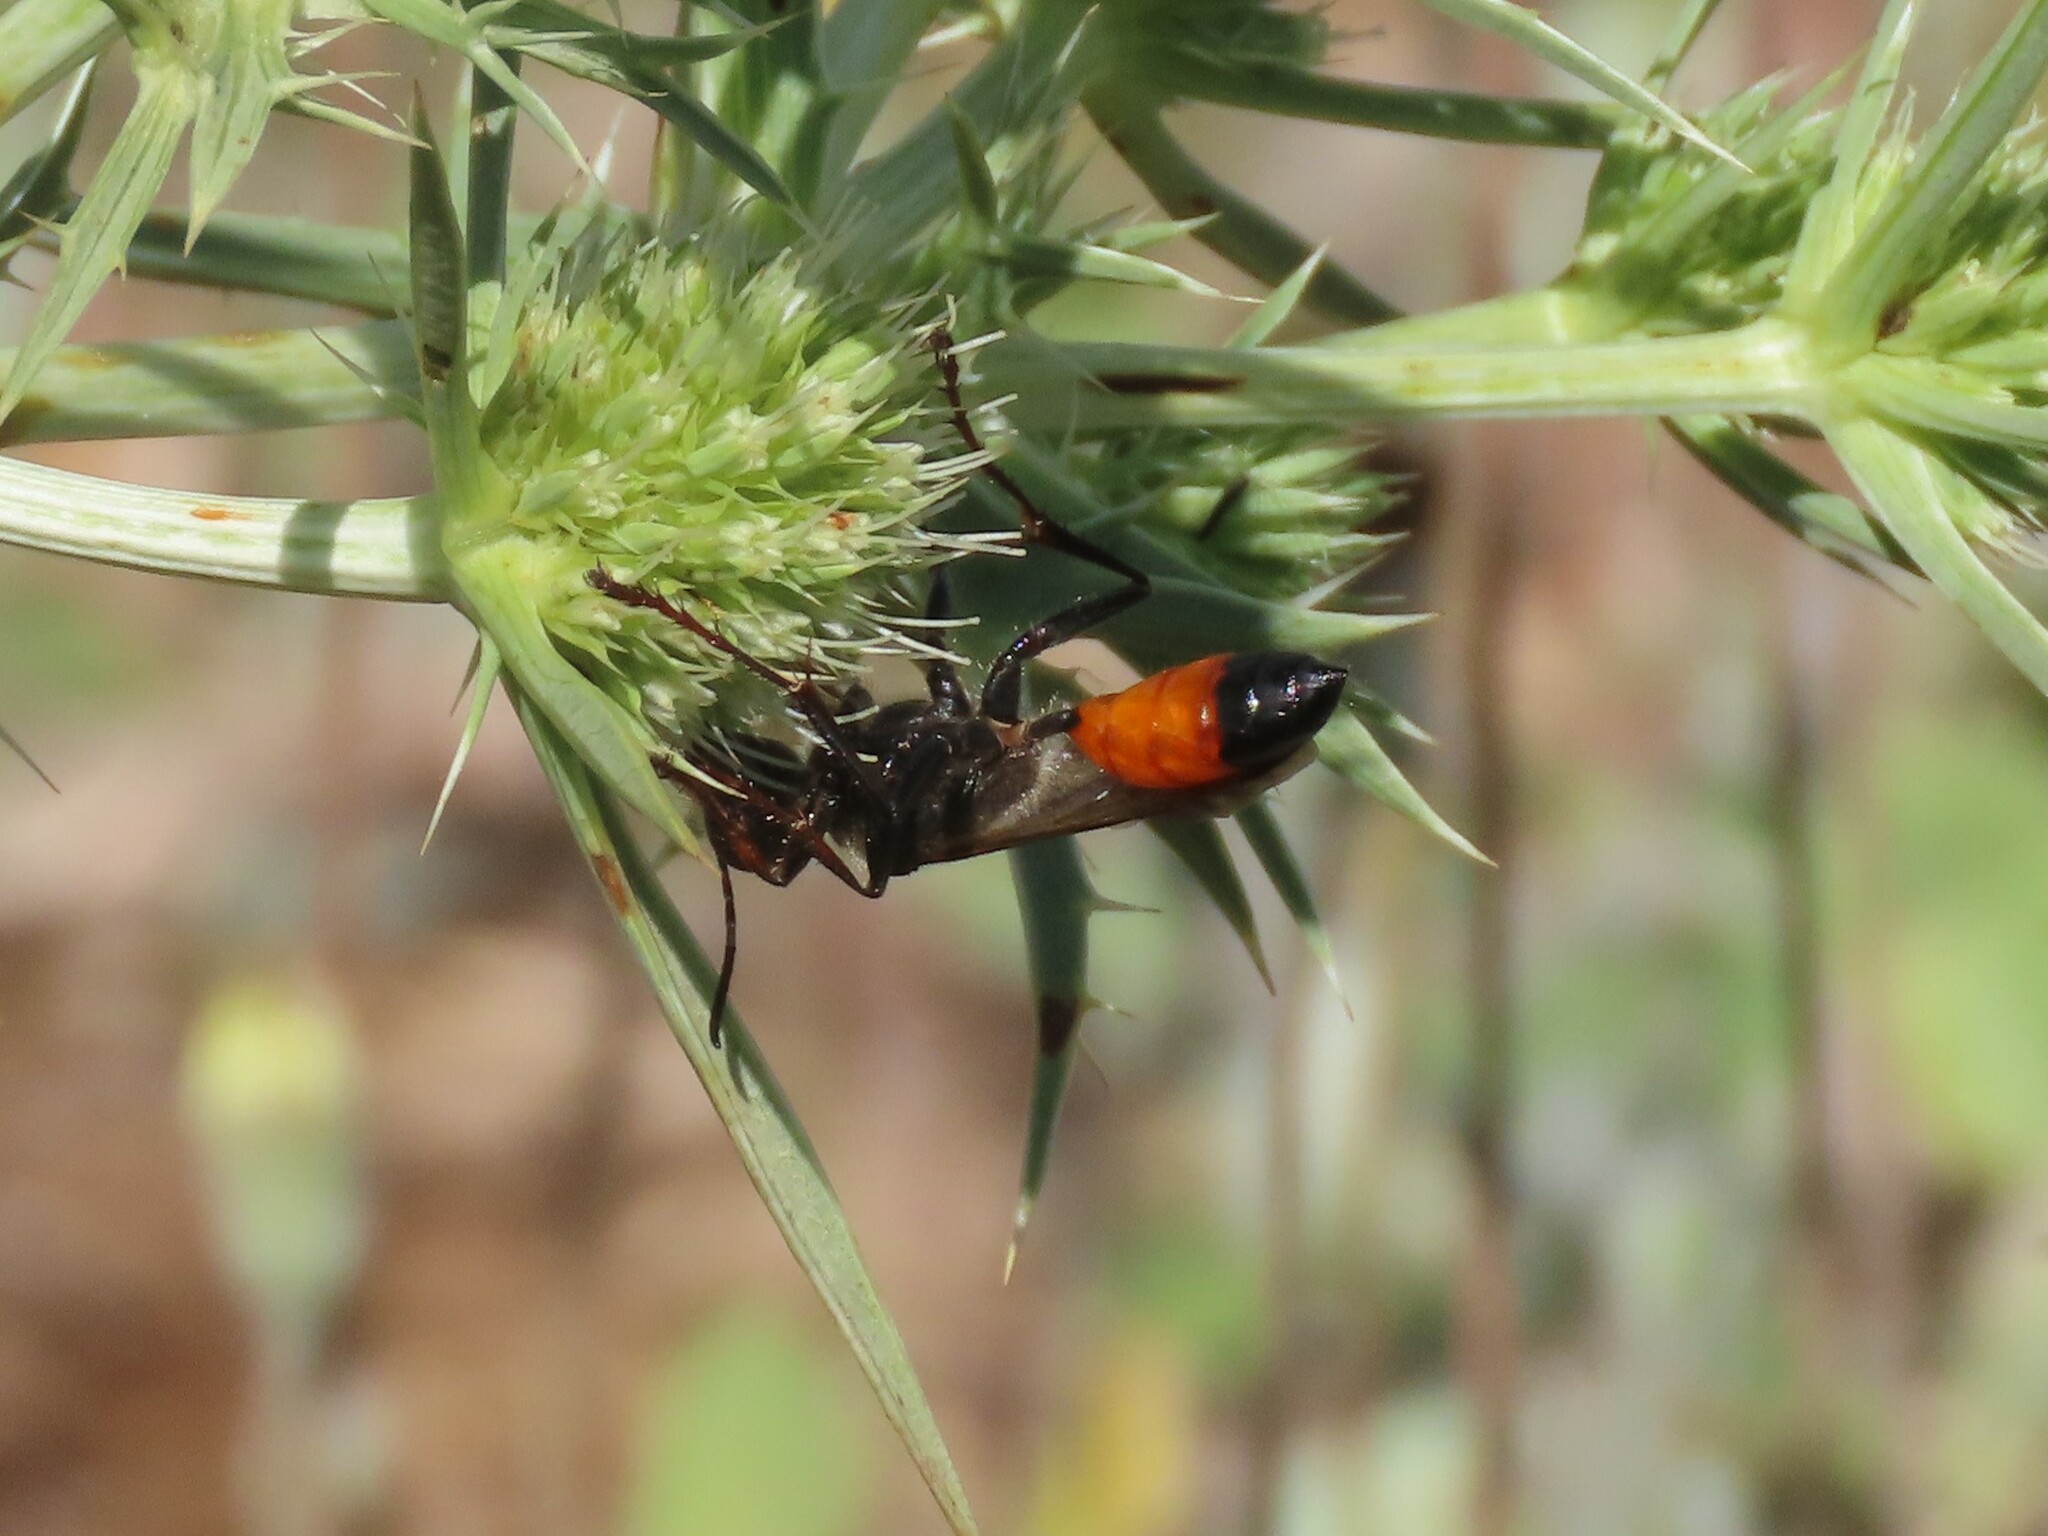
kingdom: Animalia
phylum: Arthropoda
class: Insecta
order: Hymenoptera
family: Sphecidae
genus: Sphex
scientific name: Sphex funerarius
